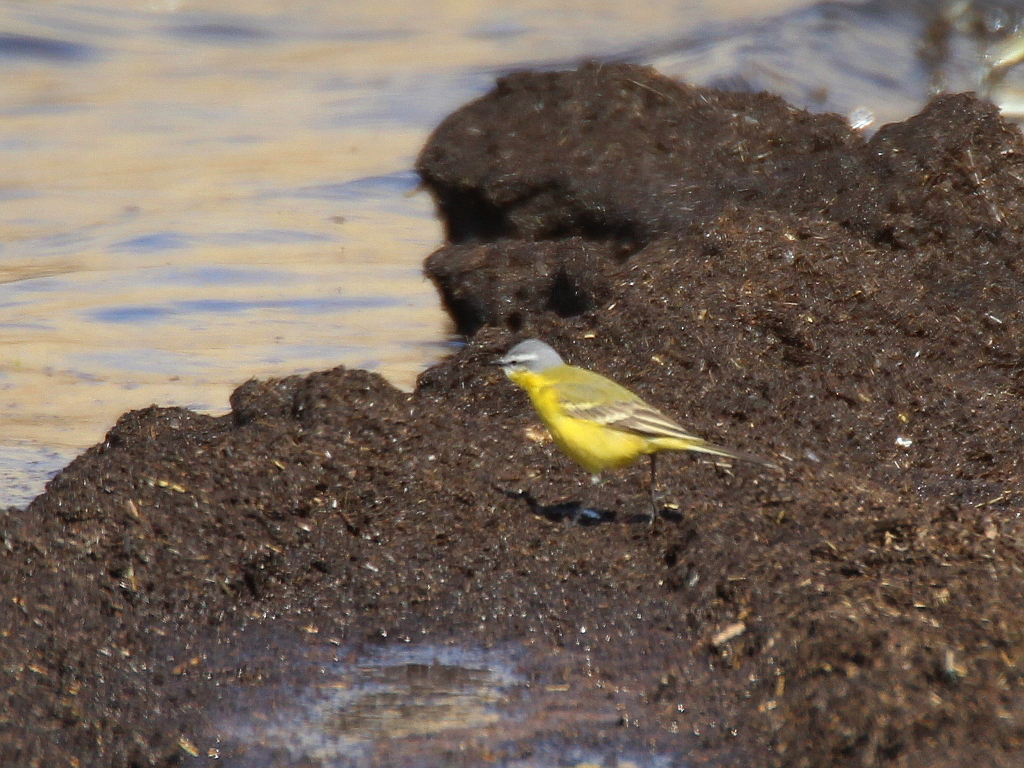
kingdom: Animalia
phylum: Chordata
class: Aves
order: Passeriformes
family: Motacillidae
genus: Motacilla
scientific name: Motacilla flava
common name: Western yellow wagtail
